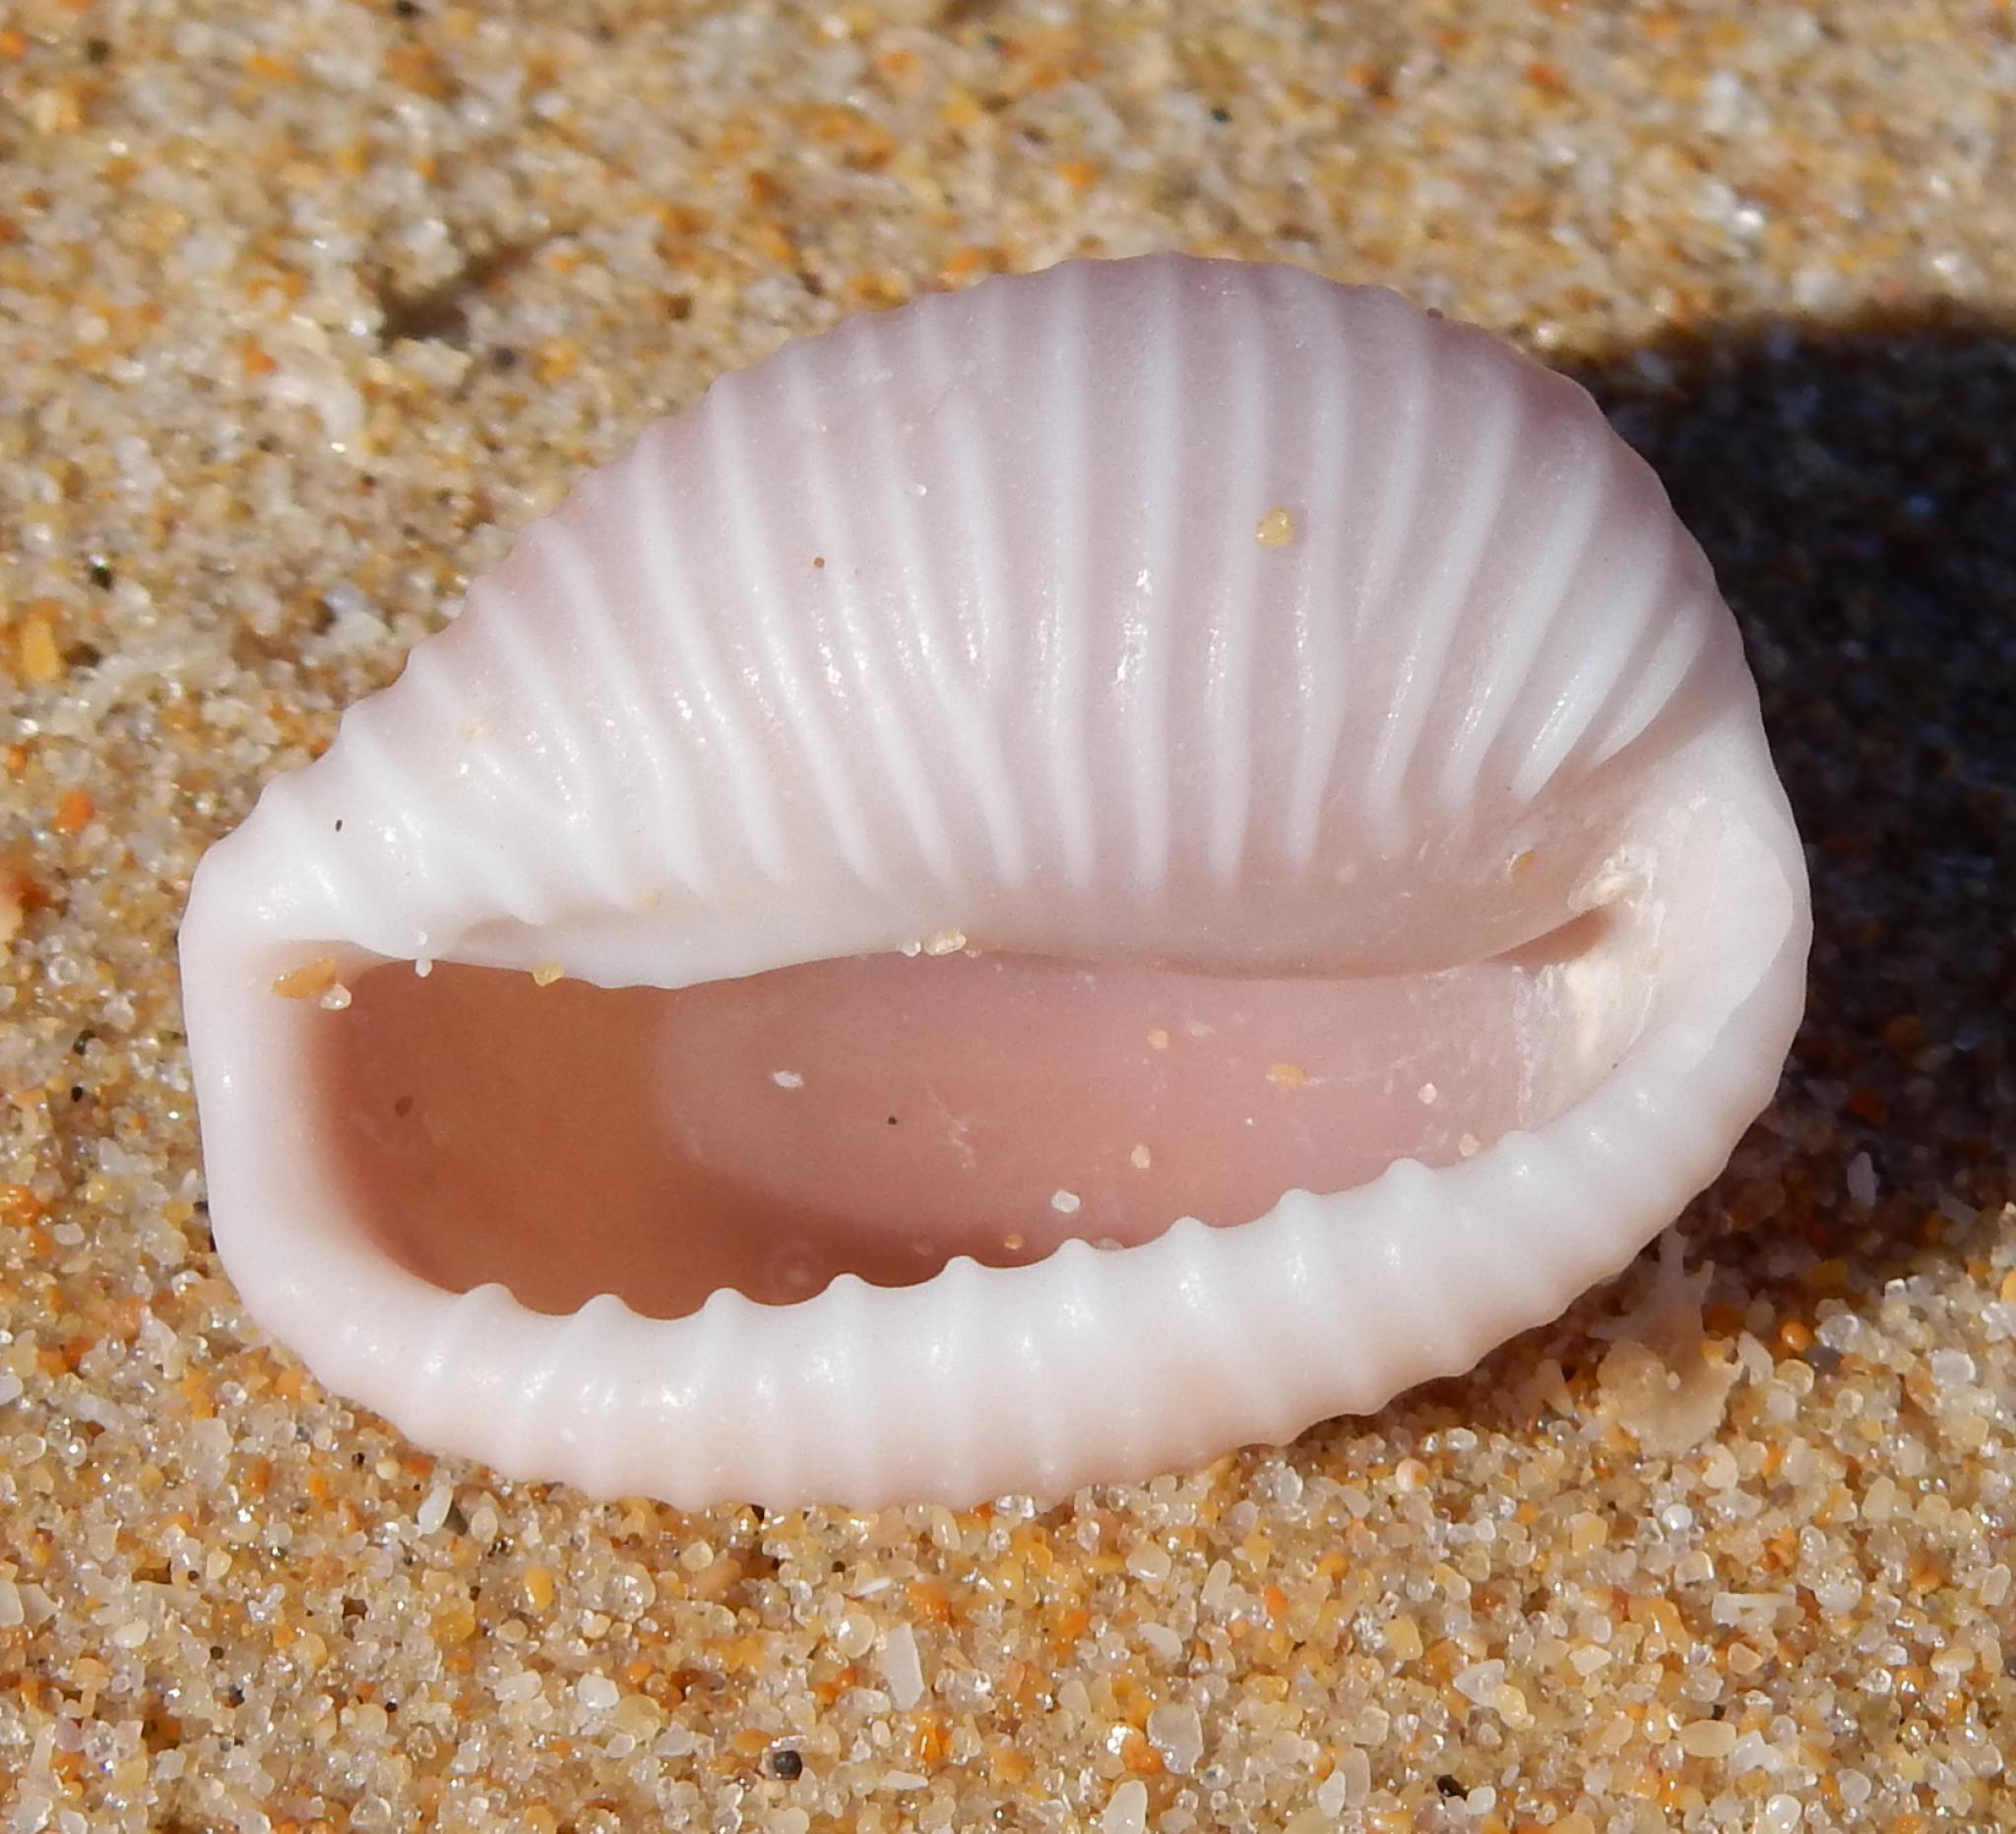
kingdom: Animalia
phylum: Mollusca
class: Gastropoda
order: Littorinimorpha
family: Triviidae
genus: Triviella
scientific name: Triviella aperta
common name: Baby's toes
